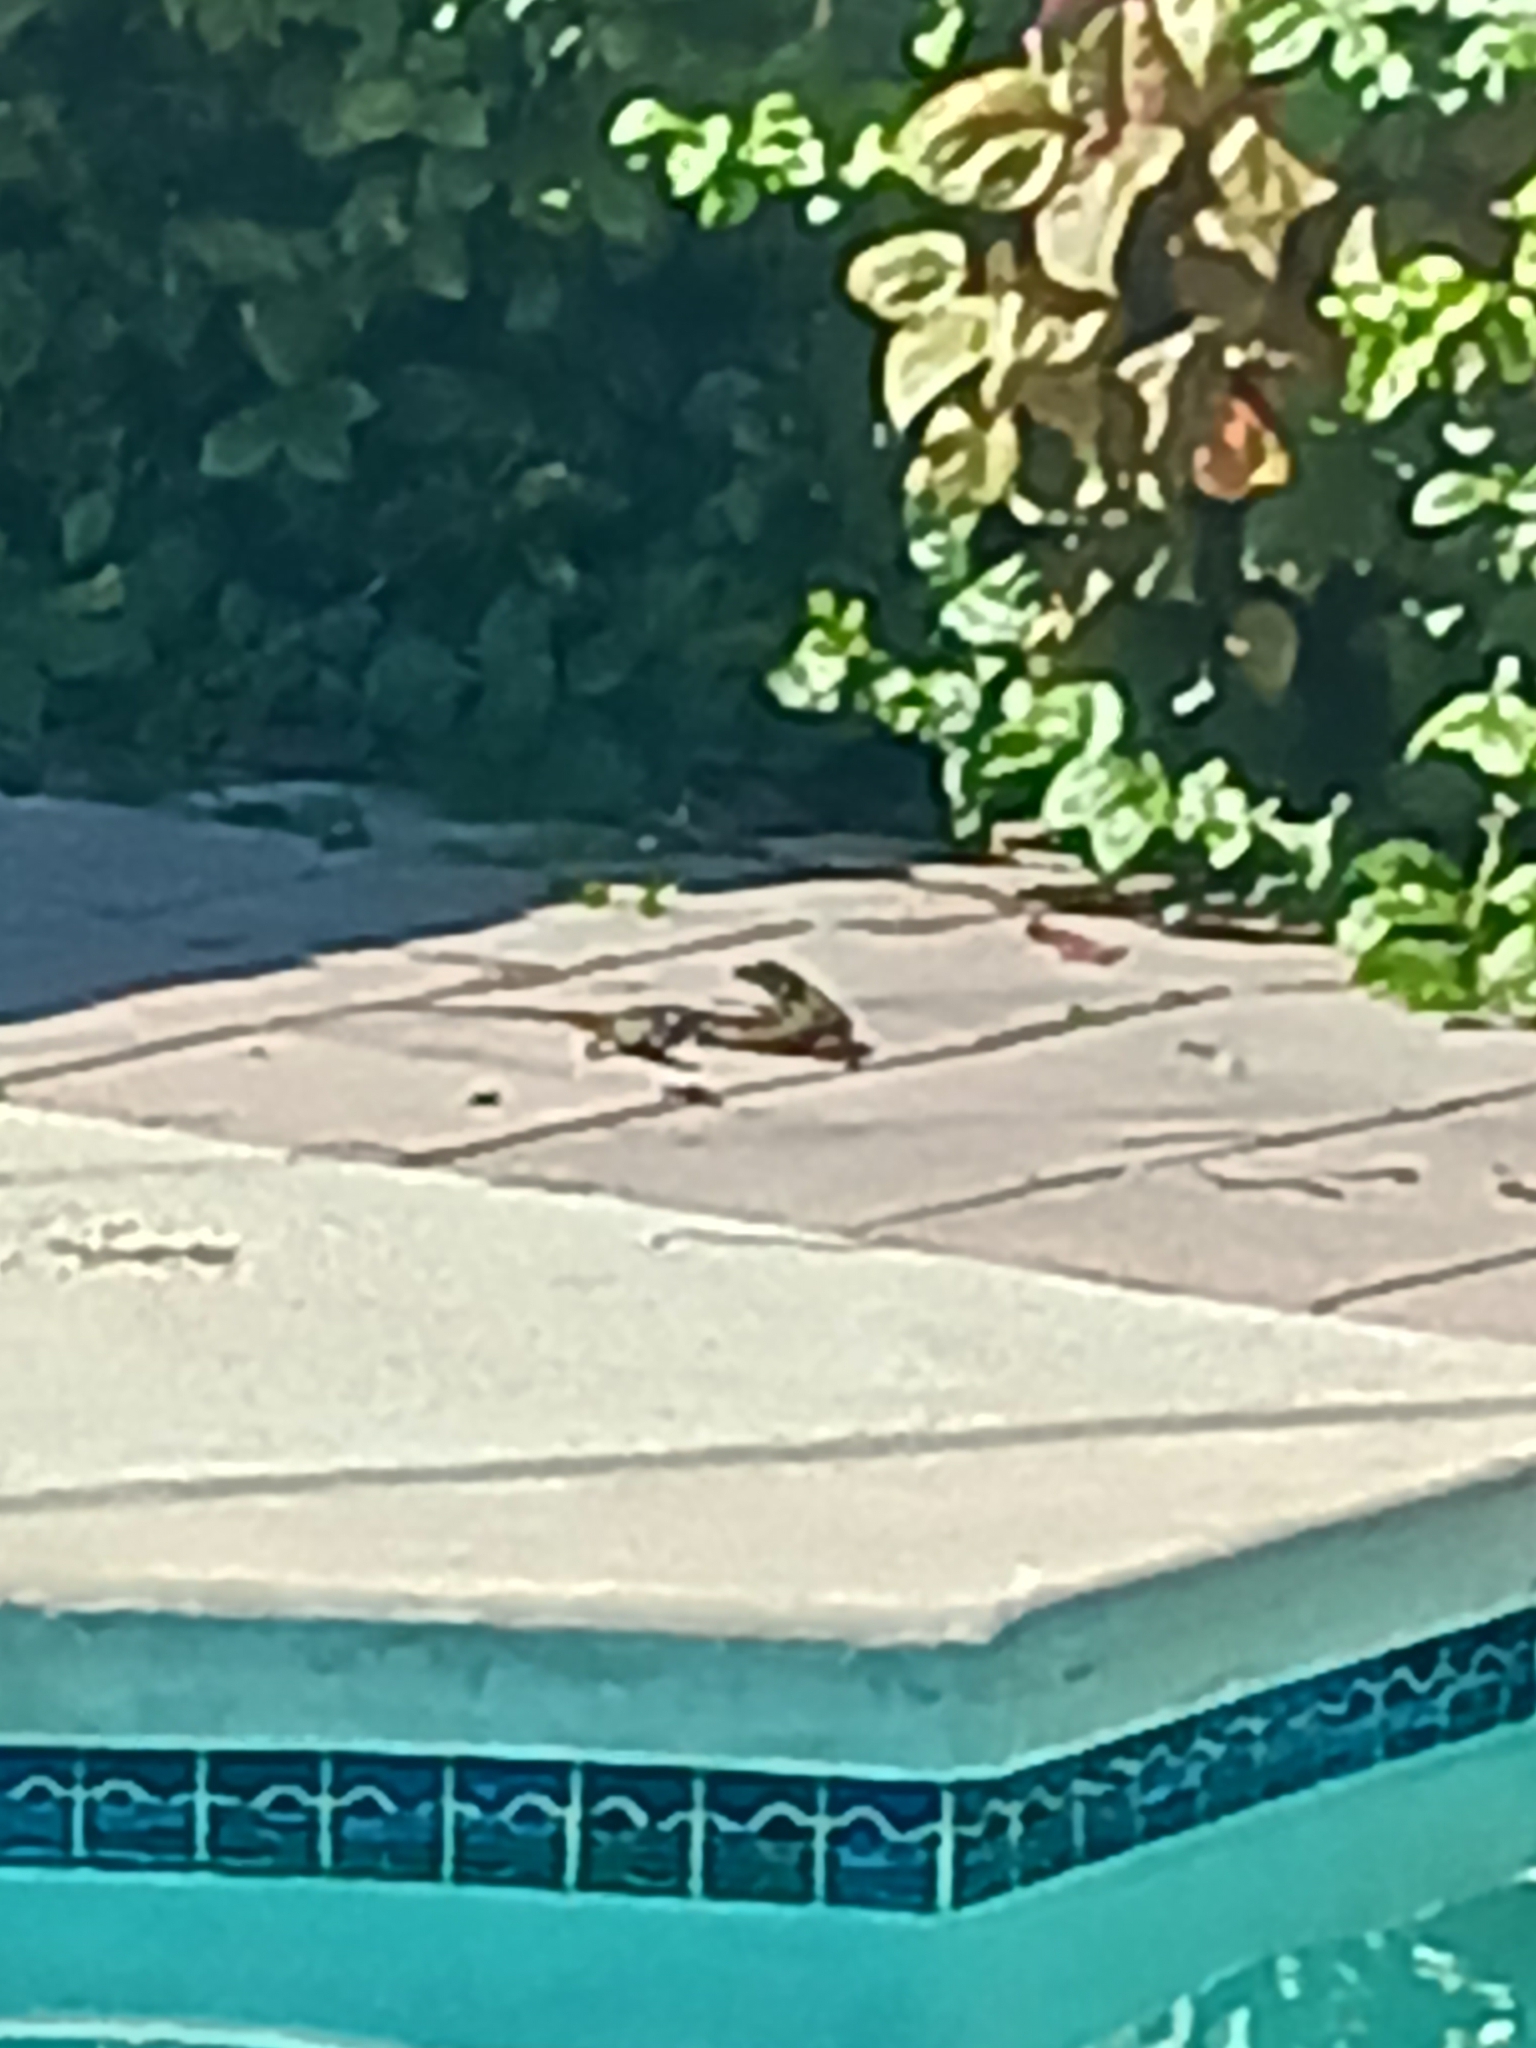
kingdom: Animalia
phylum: Chordata
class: Squamata
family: Teiidae
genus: Ameiva
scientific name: Ameiva ameiva
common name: Giant ameiva
